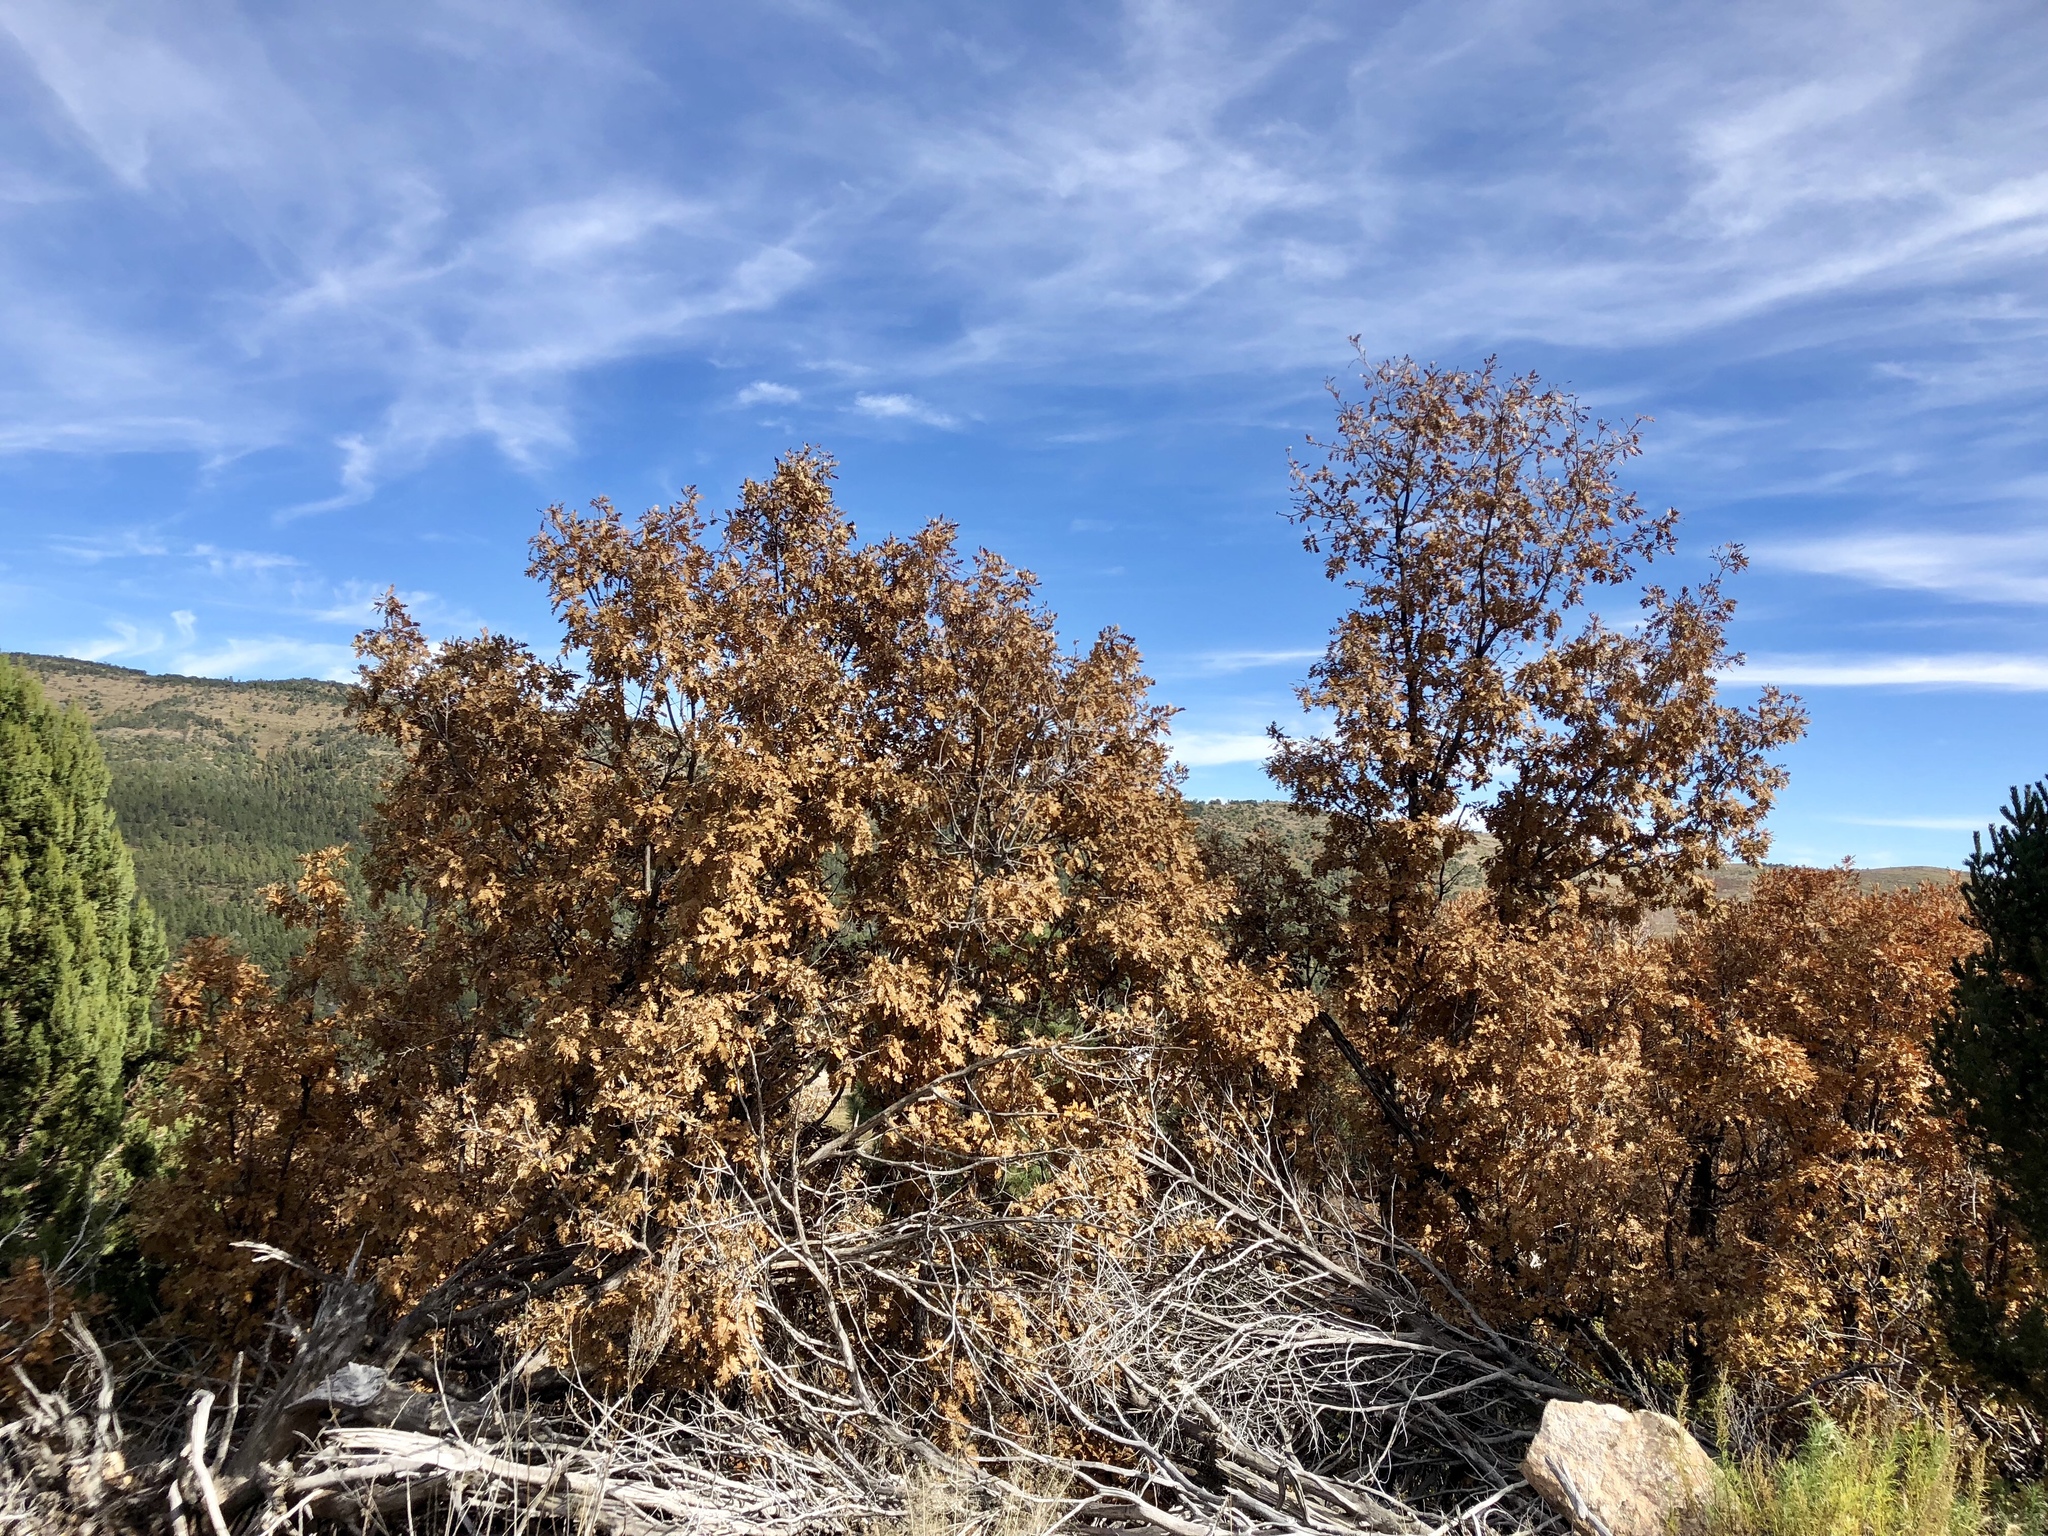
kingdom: Plantae
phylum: Tracheophyta
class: Magnoliopsida
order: Fagales
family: Fagaceae
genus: Quercus
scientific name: Quercus gambelii
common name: Gambel oak
